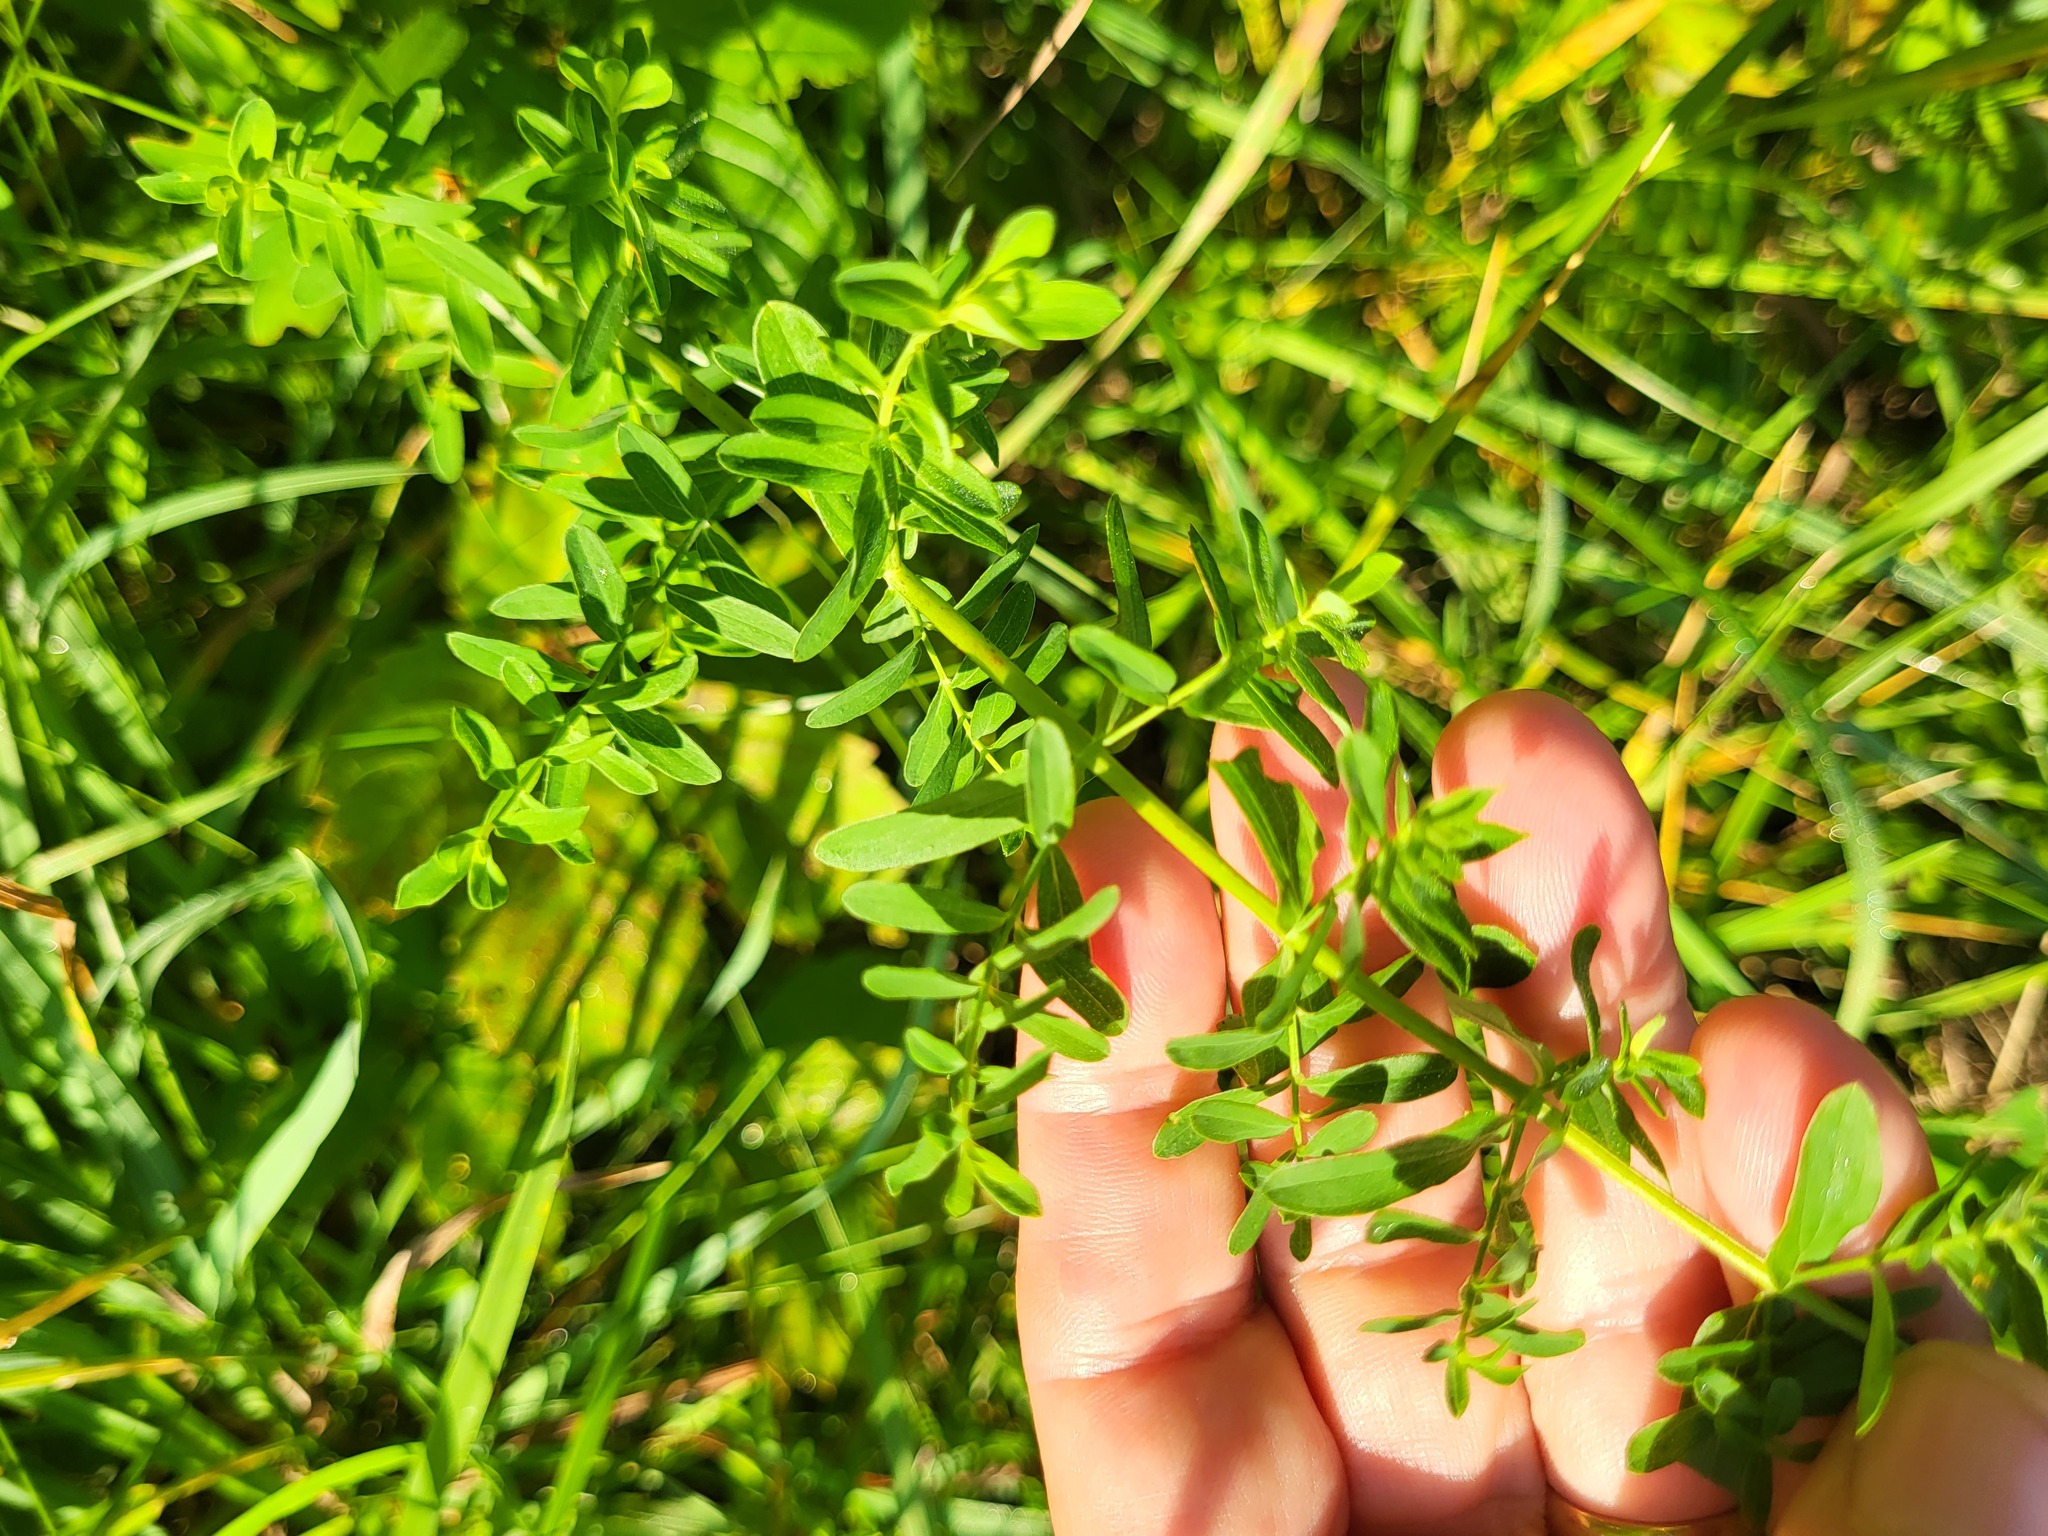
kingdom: Plantae
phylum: Tracheophyta
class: Magnoliopsida
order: Malpighiales
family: Hypericaceae
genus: Hypericum
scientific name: Hypericum perforatum
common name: Common st. johnswort
